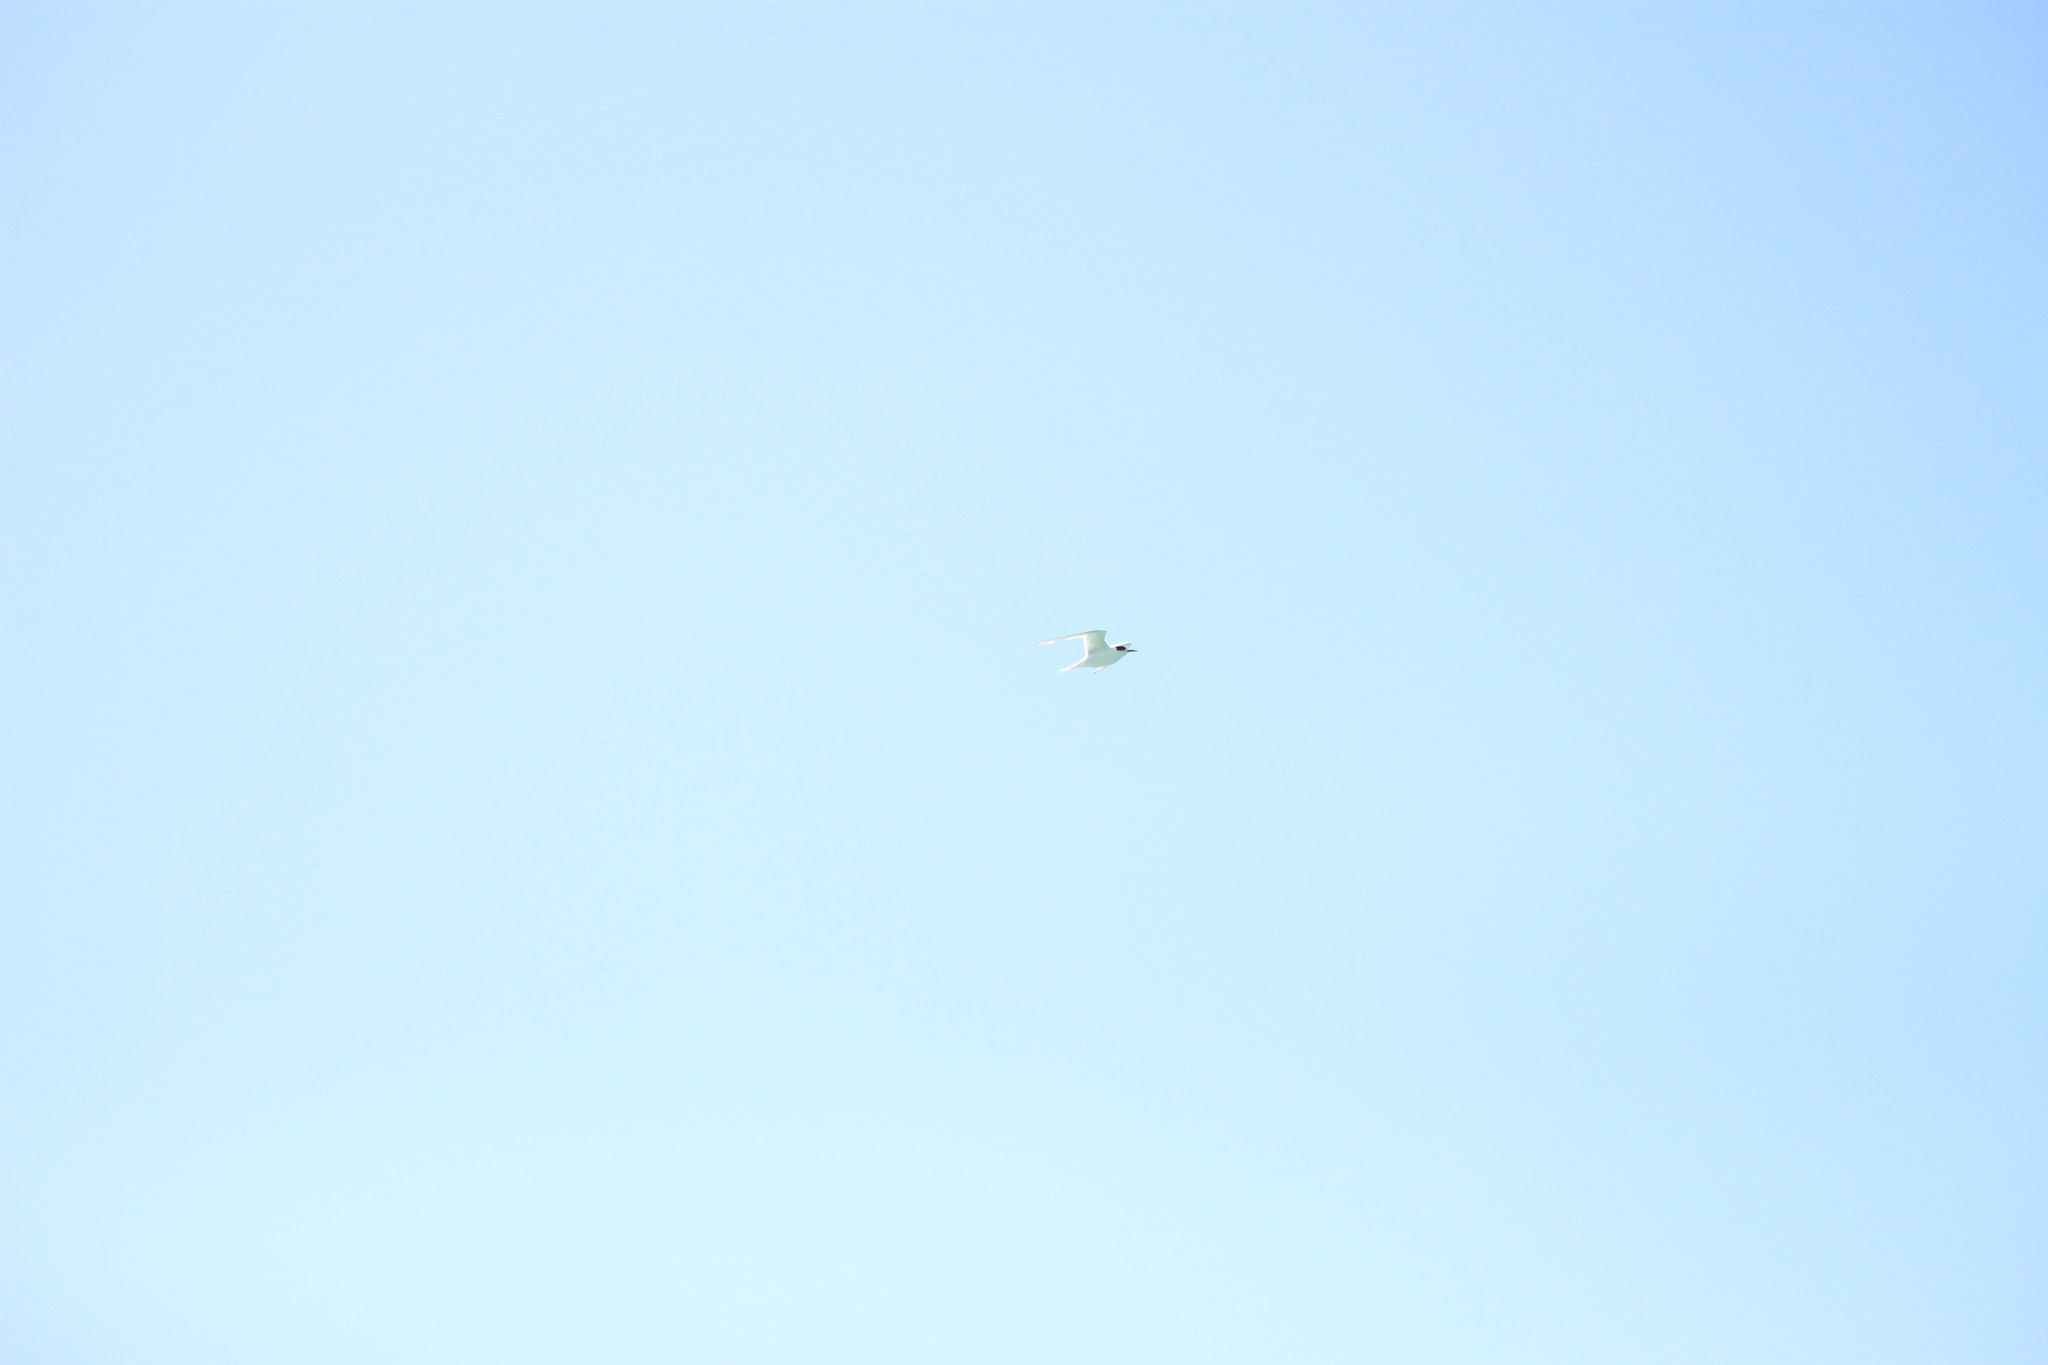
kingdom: Animalia
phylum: Chordata
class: Aves
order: Charadriiformes
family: Laridae
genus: Sterna
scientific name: Sterna striata
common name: White-fronted tern
